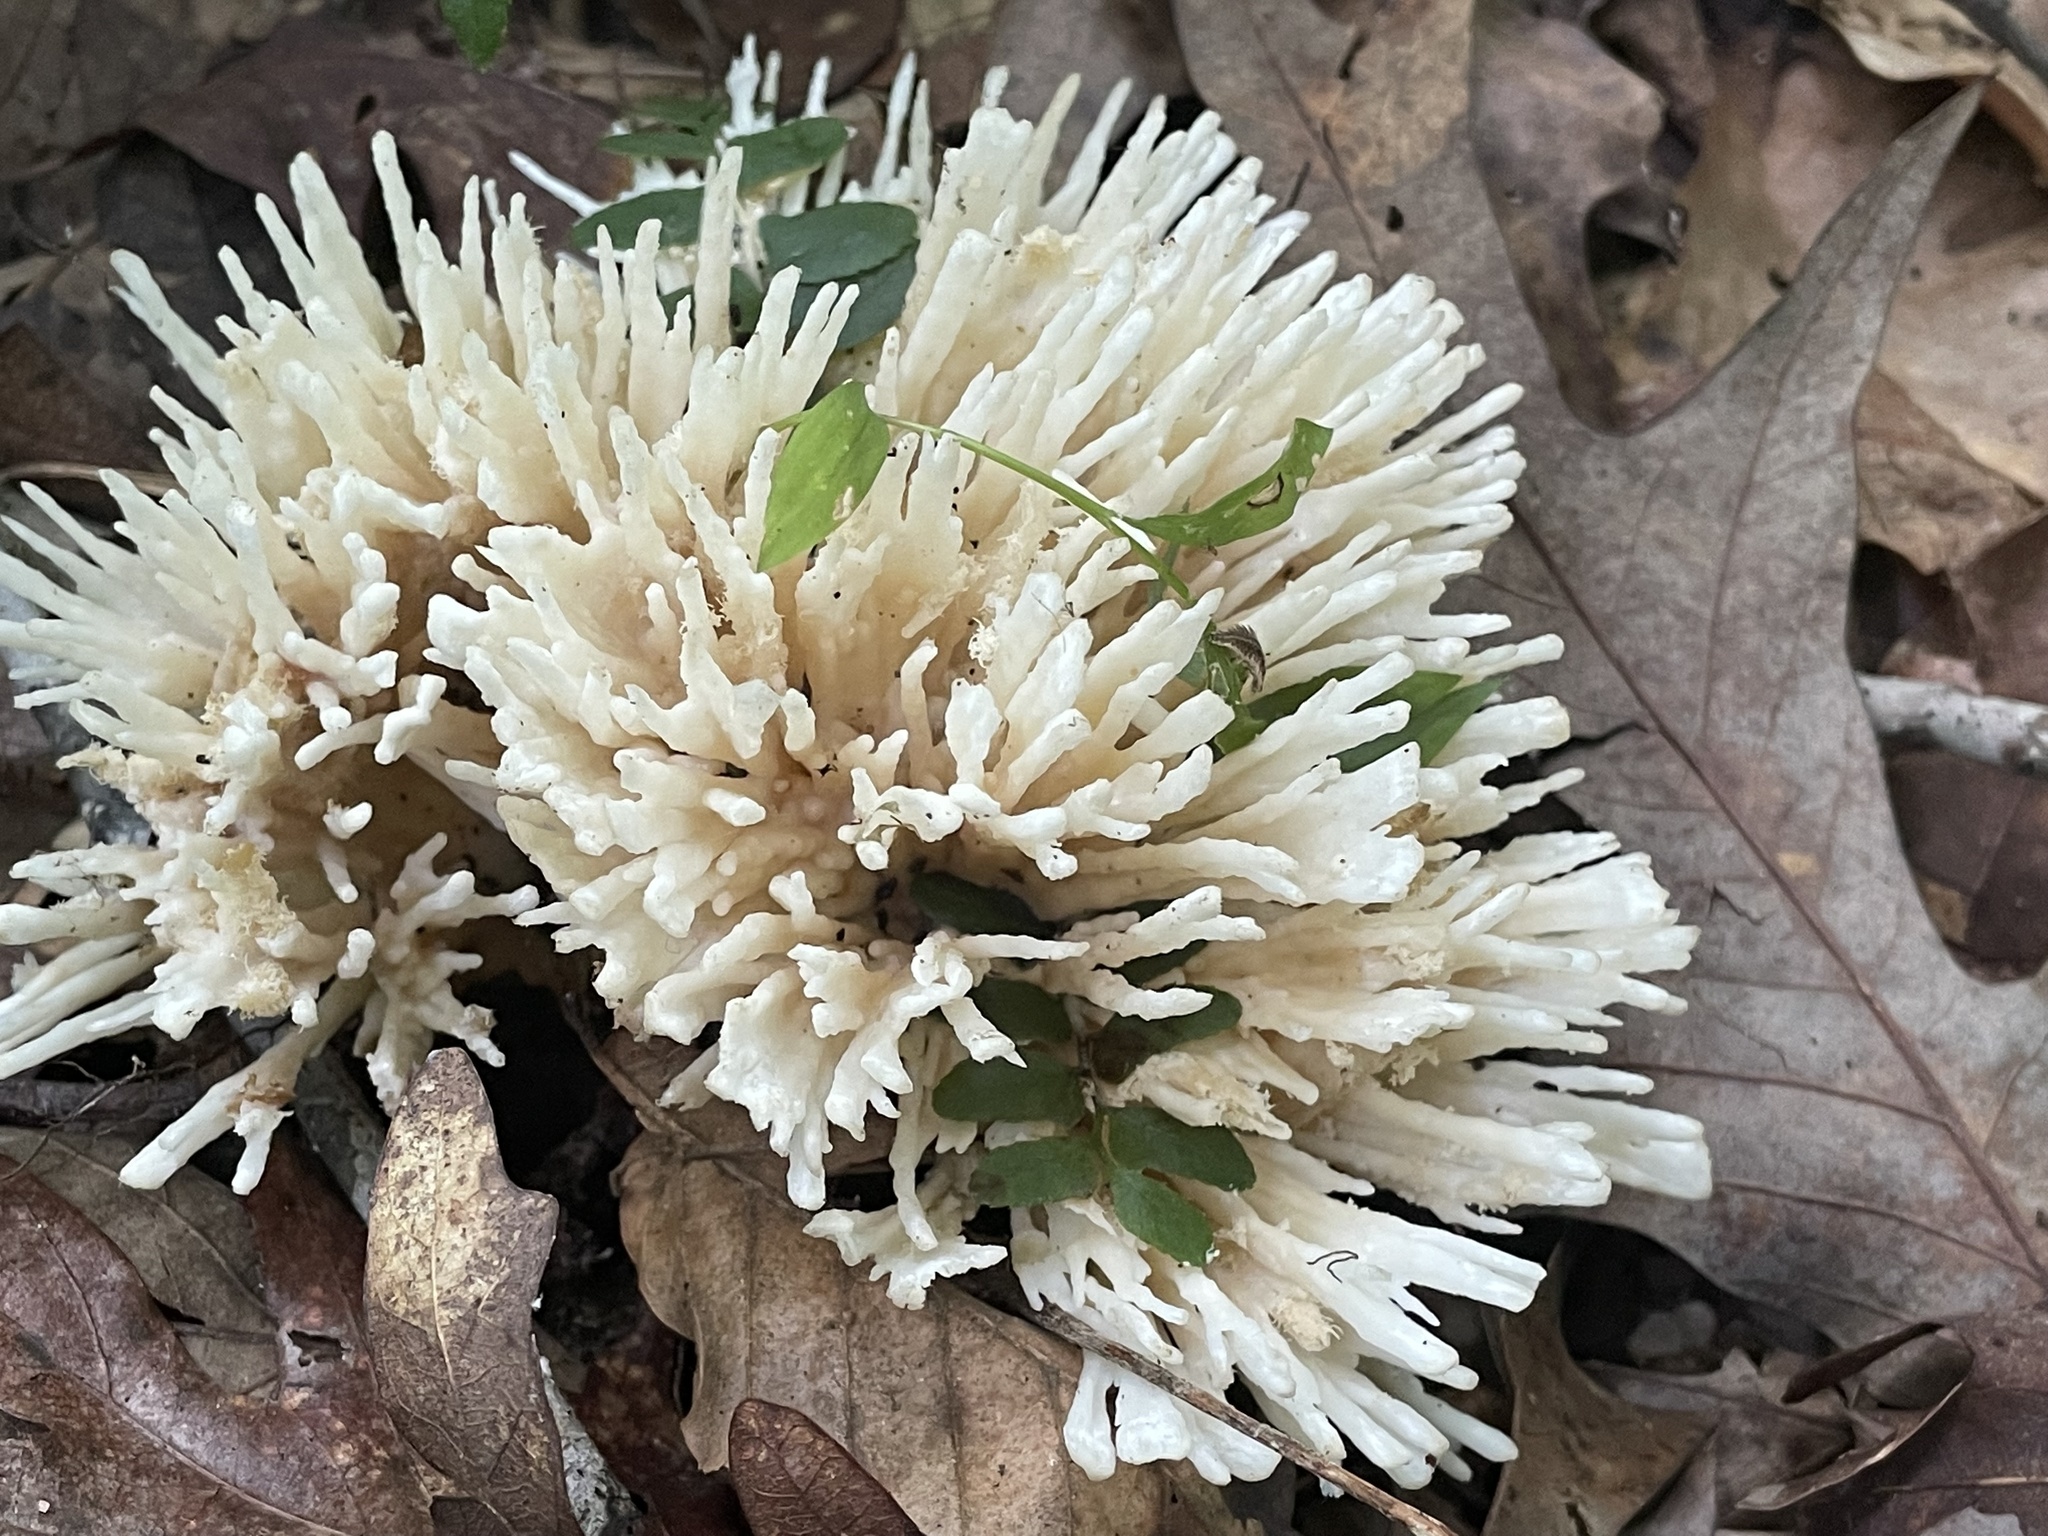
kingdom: Fungi
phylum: Basidiomycota
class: Agaricomycetes
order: Sebacinales
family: Sebacinaceae
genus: Sebacina
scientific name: Sebacina schweinitzii
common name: Jellied false coral fungus
